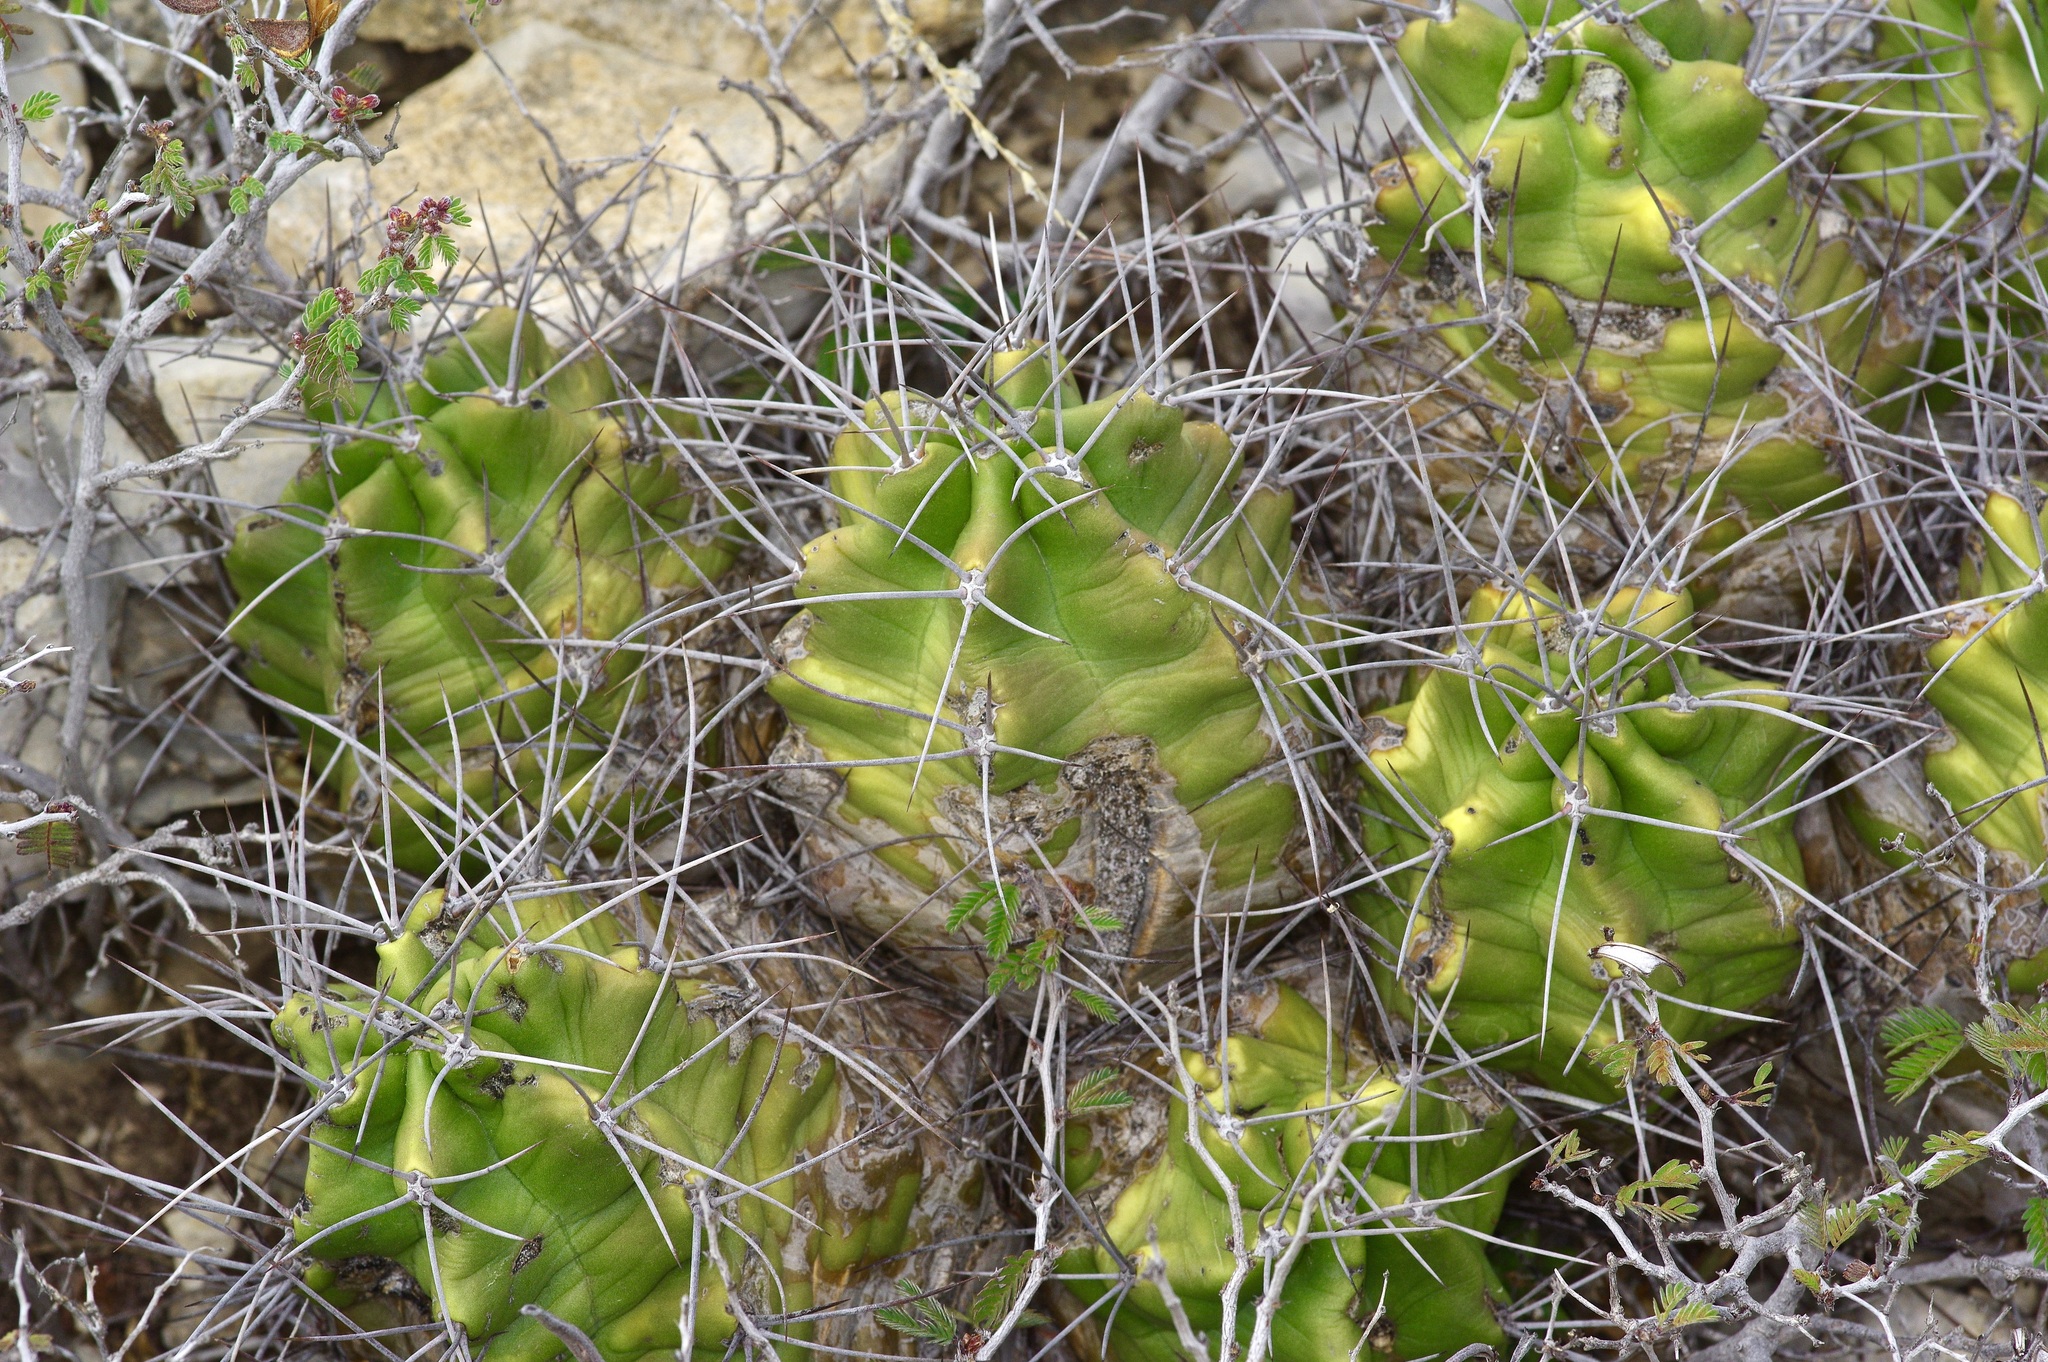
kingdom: Plantae
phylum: Tracheophyta
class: Magnoliopsida
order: Caryophyllales
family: Cactaceae
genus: Echinocereus
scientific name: Echinocereus coccineus
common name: Scarlet hedgehog cactus
